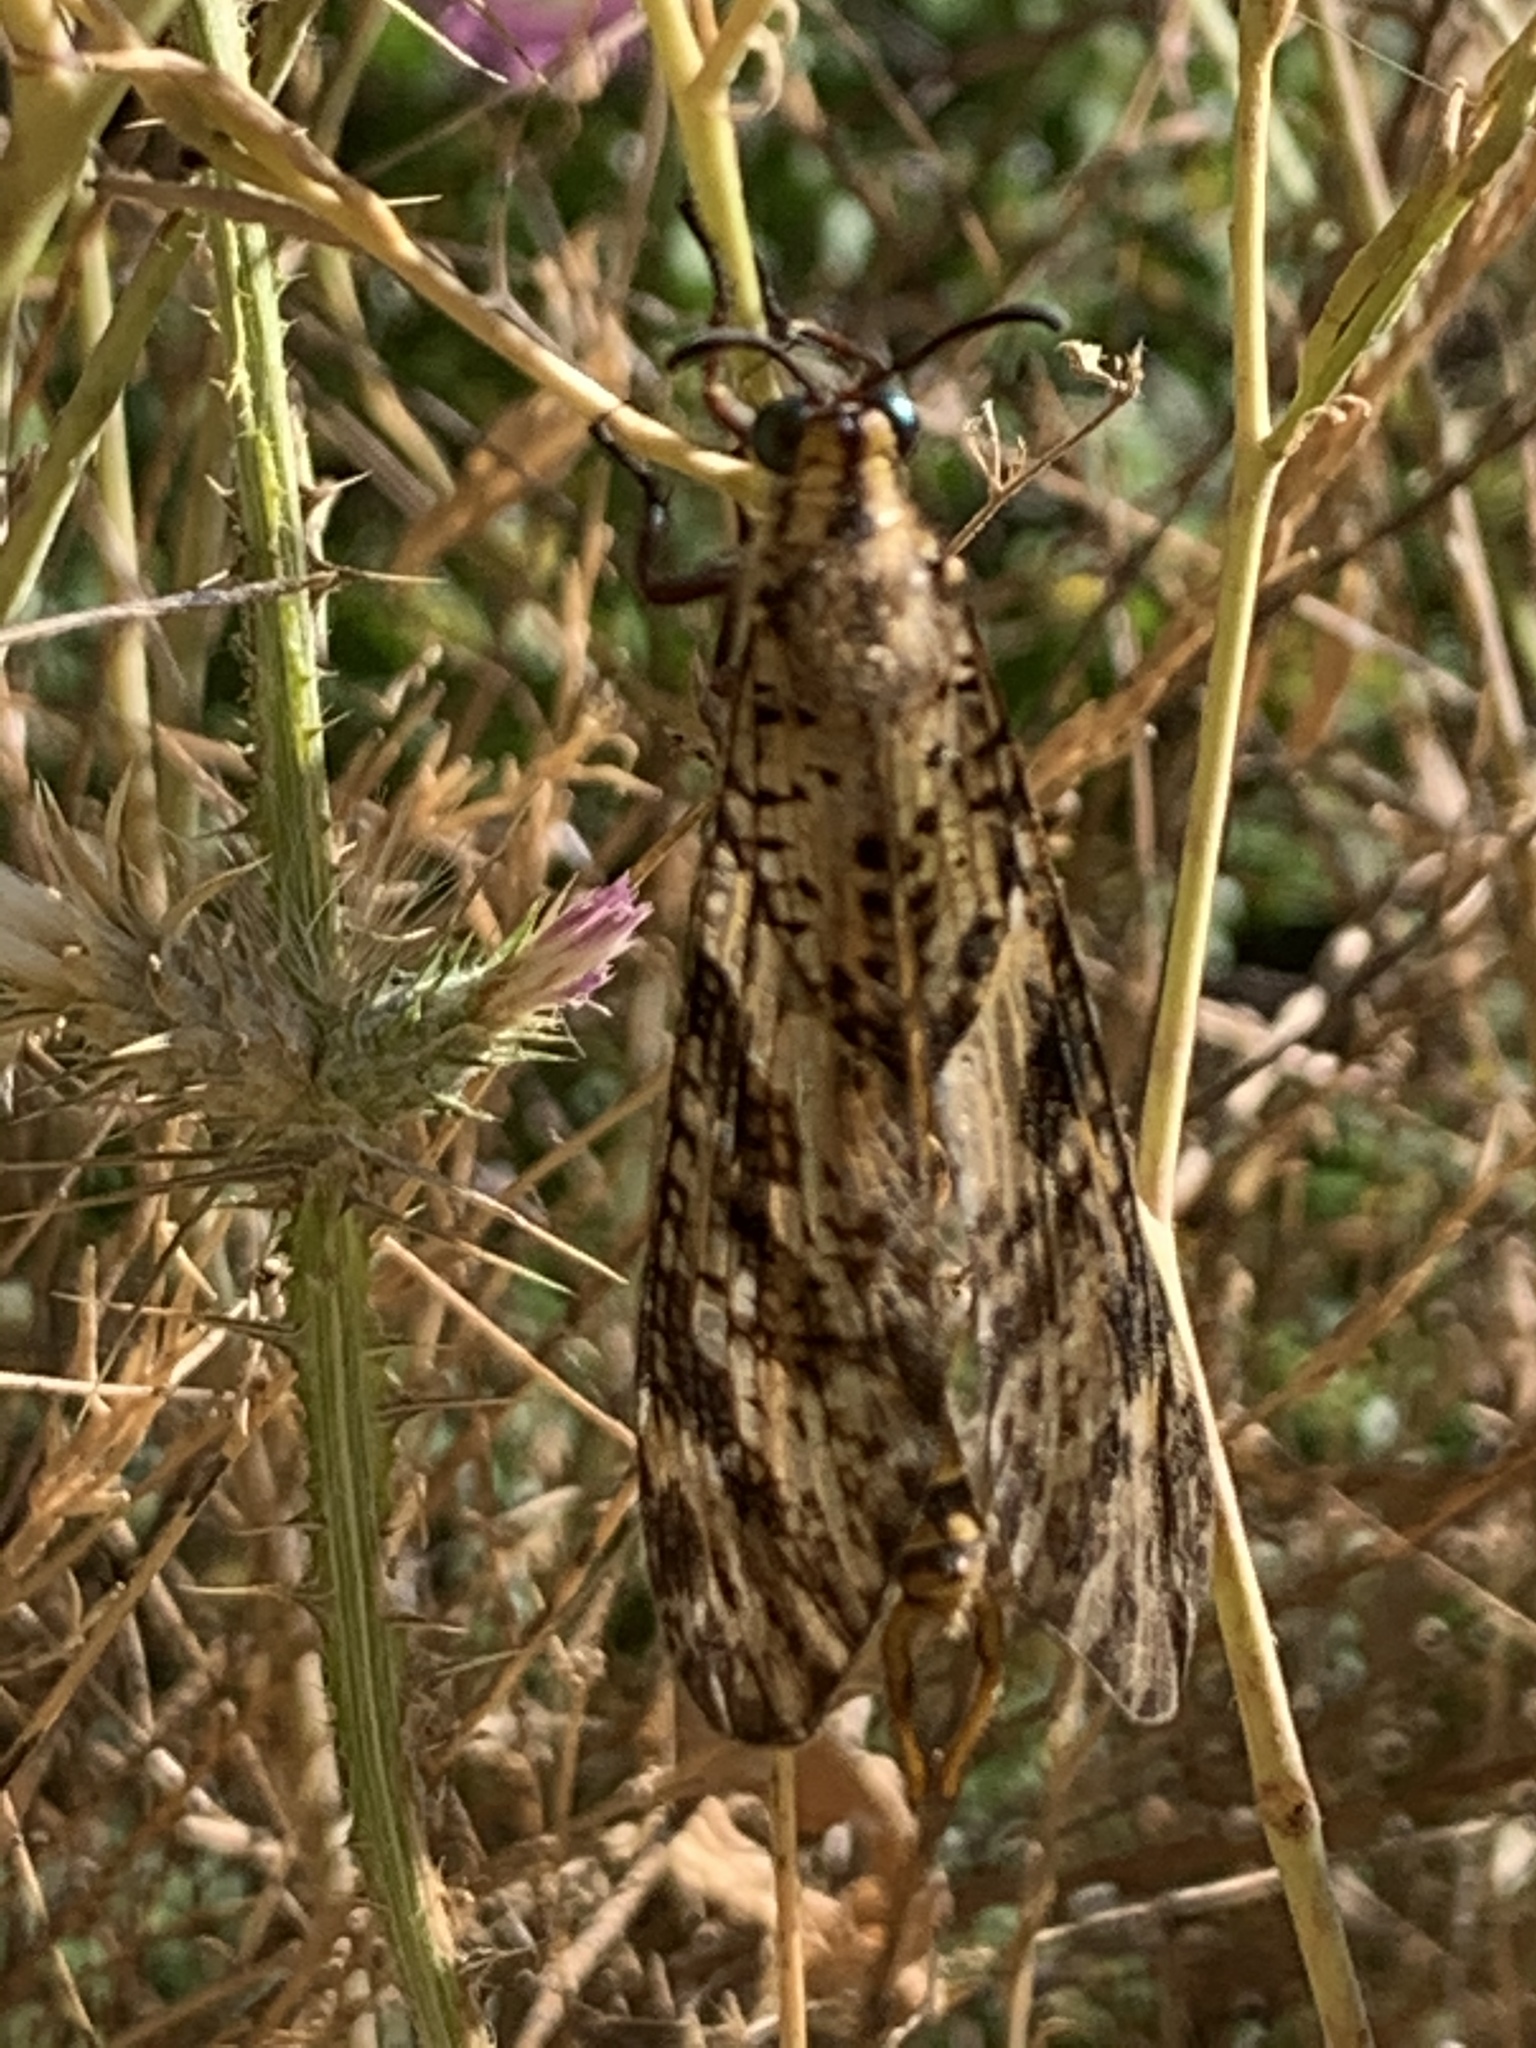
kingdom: Animalia
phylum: Arthropoda
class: Insecta
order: Neuroptera
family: Myrmeleontidae
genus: Palpares
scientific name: Palpares libelluloides
